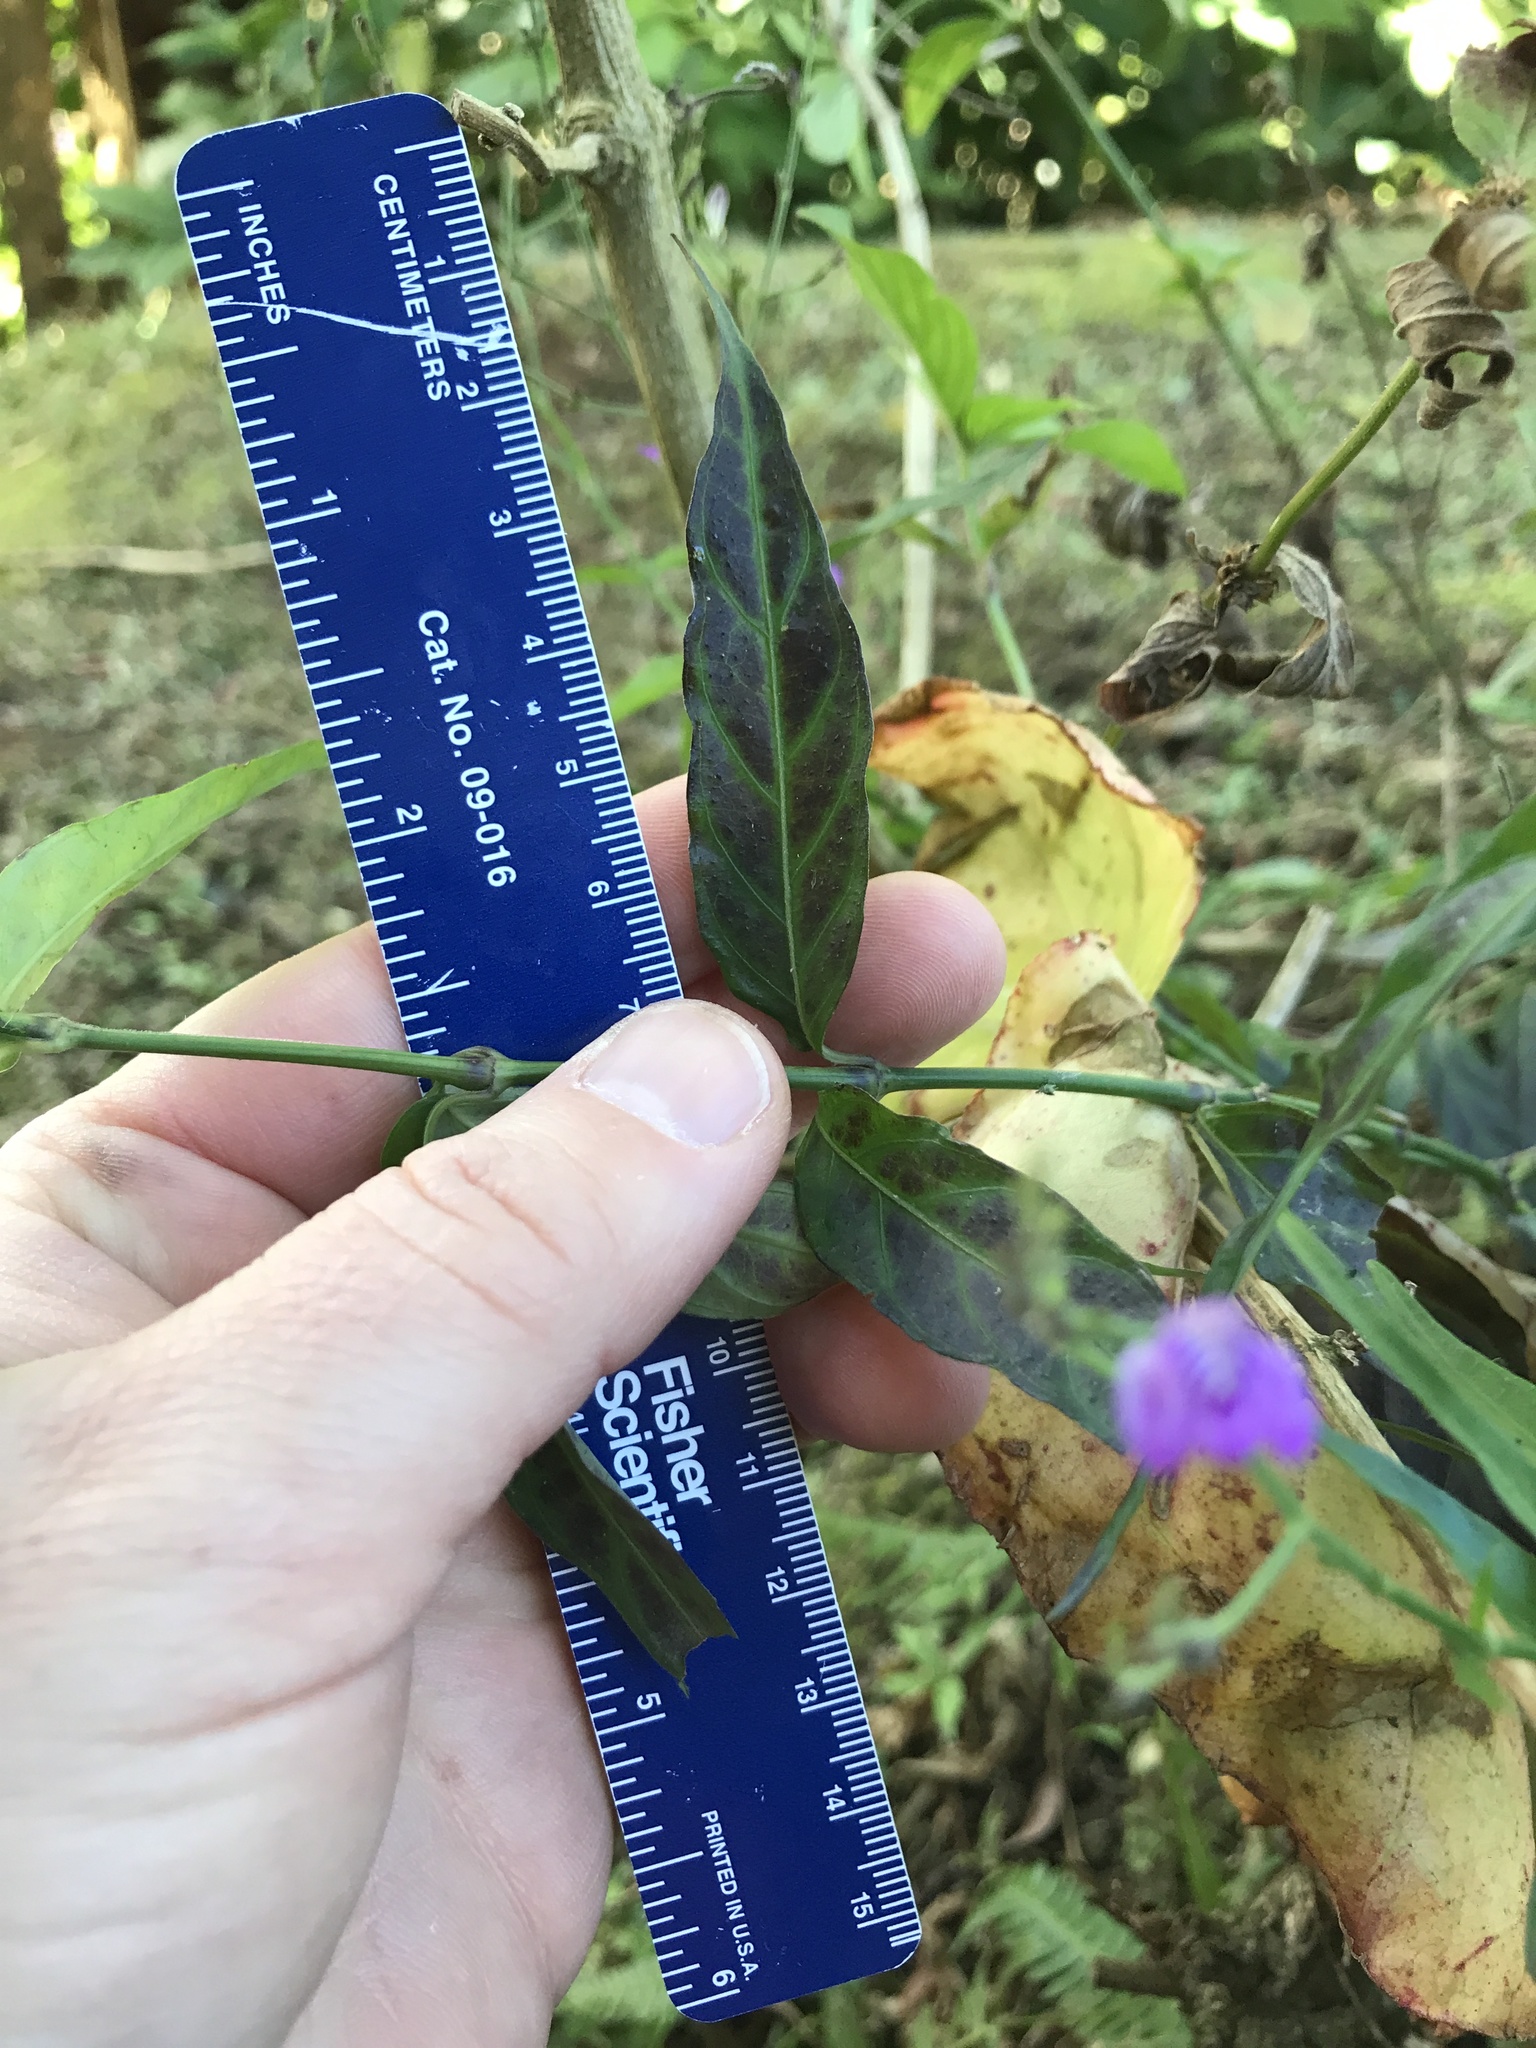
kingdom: Plantae
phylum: Tracheophyta
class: Magnoliopsida
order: Lamiales
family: Acanthaceae
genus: Dianthera
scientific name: Dianthera pectoralis
